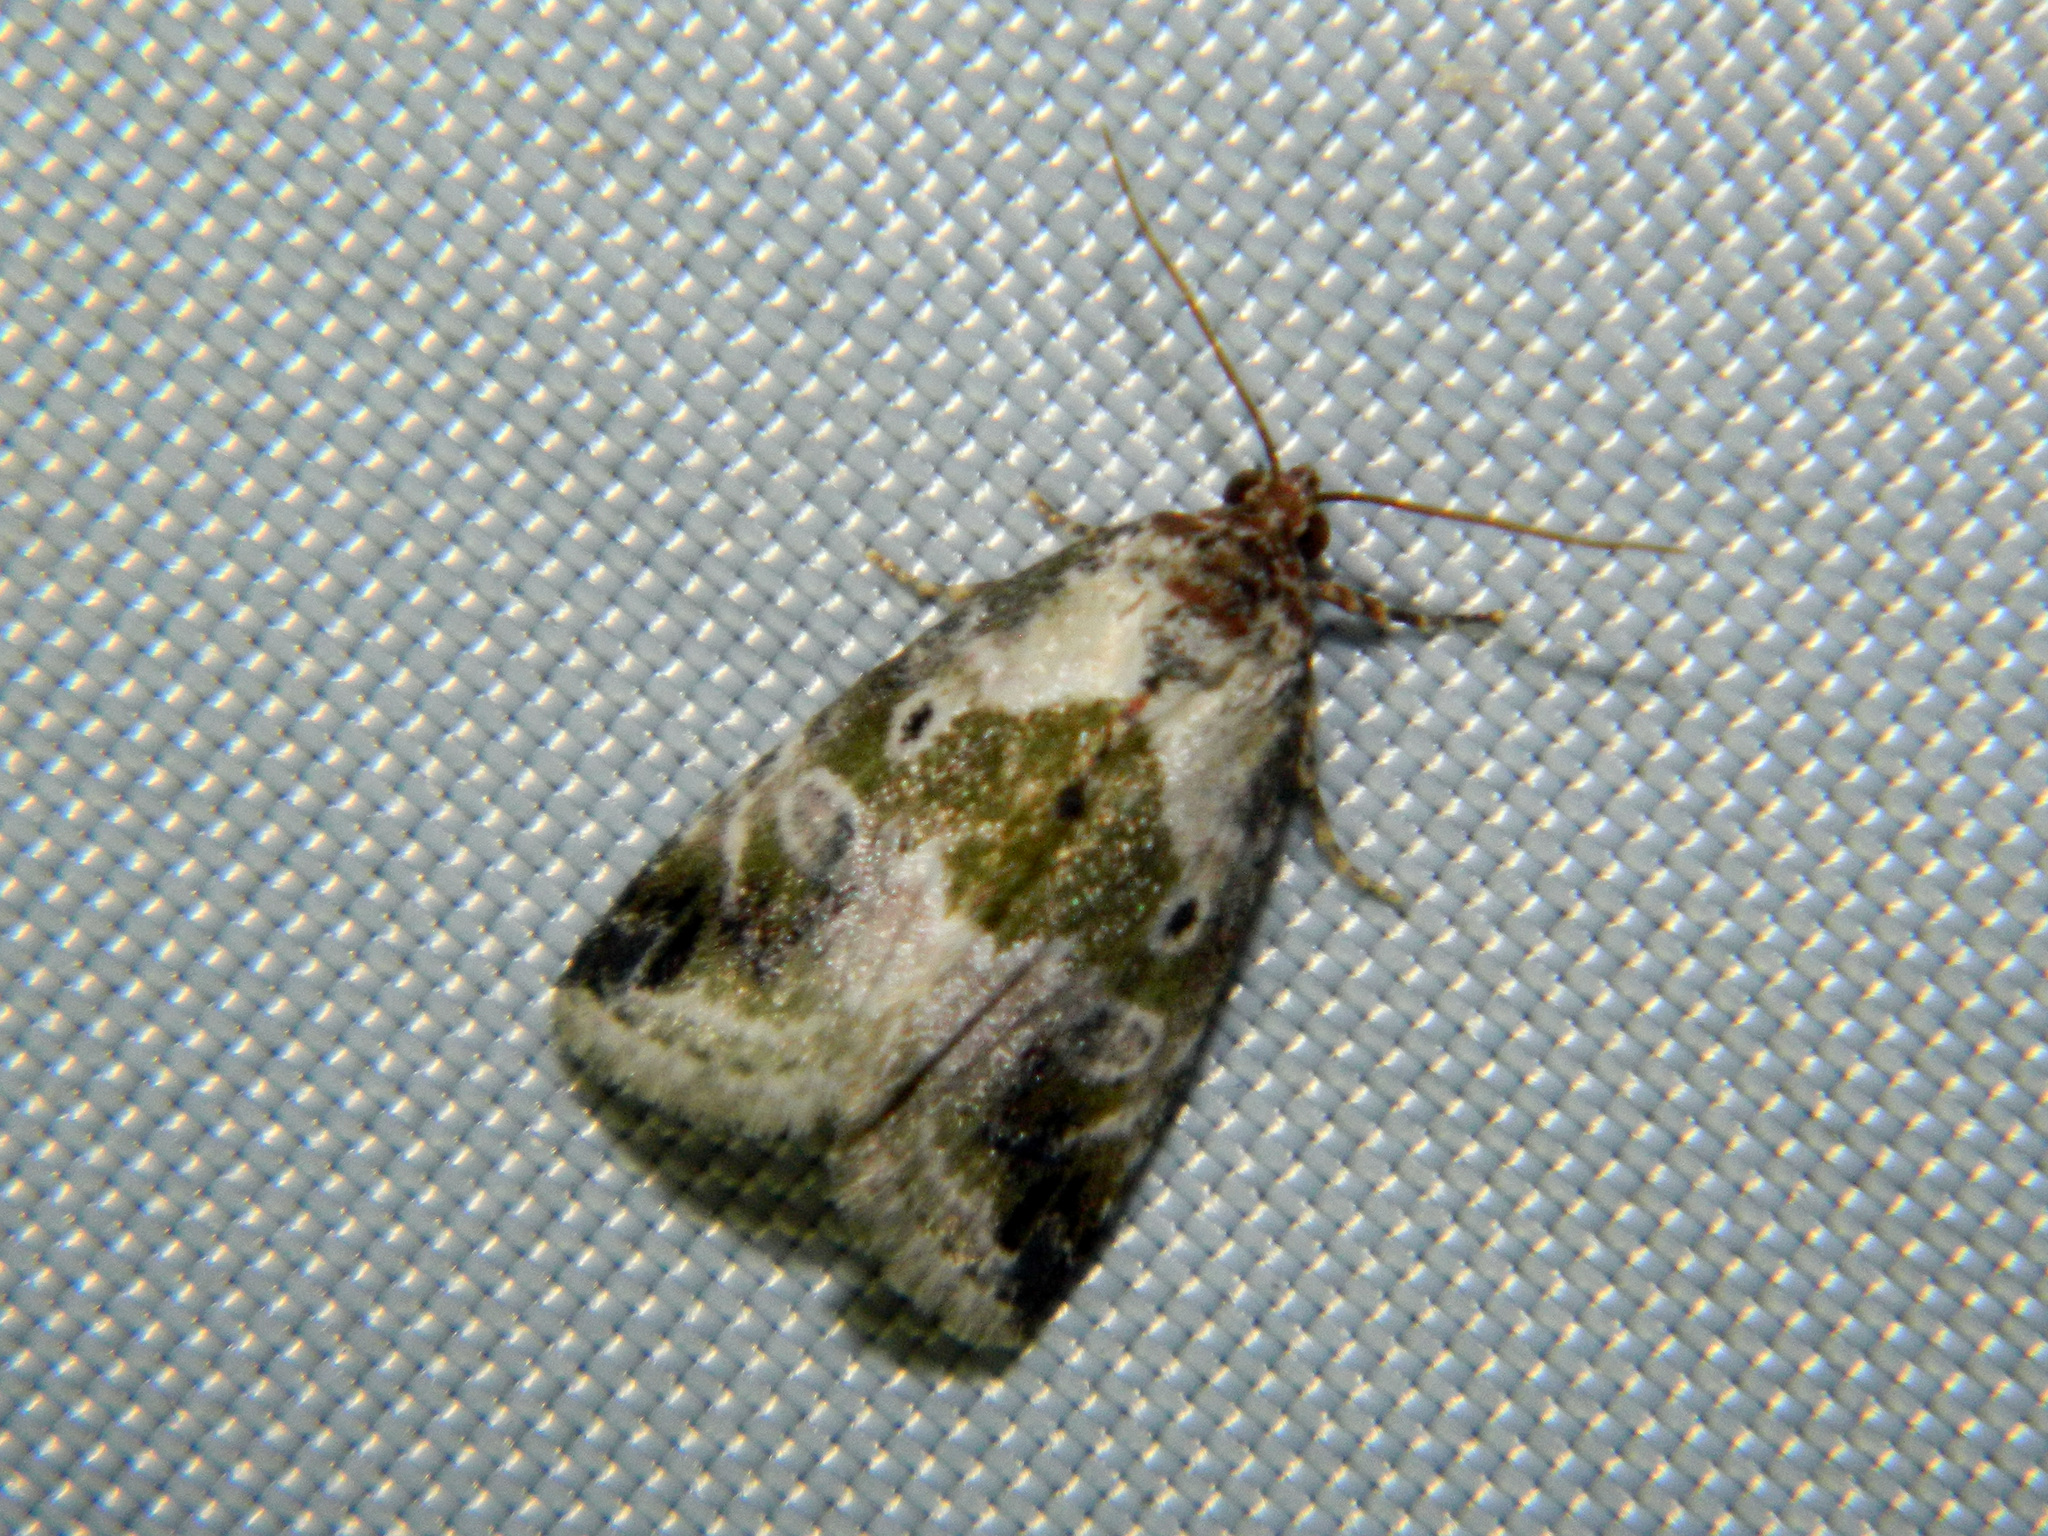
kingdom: Animalia
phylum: Arthropoda
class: Insecta
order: Lepidoptera
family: Noctuidae
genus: Maliattha
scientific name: Maliattha synochitis
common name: Black-dotted glyph
